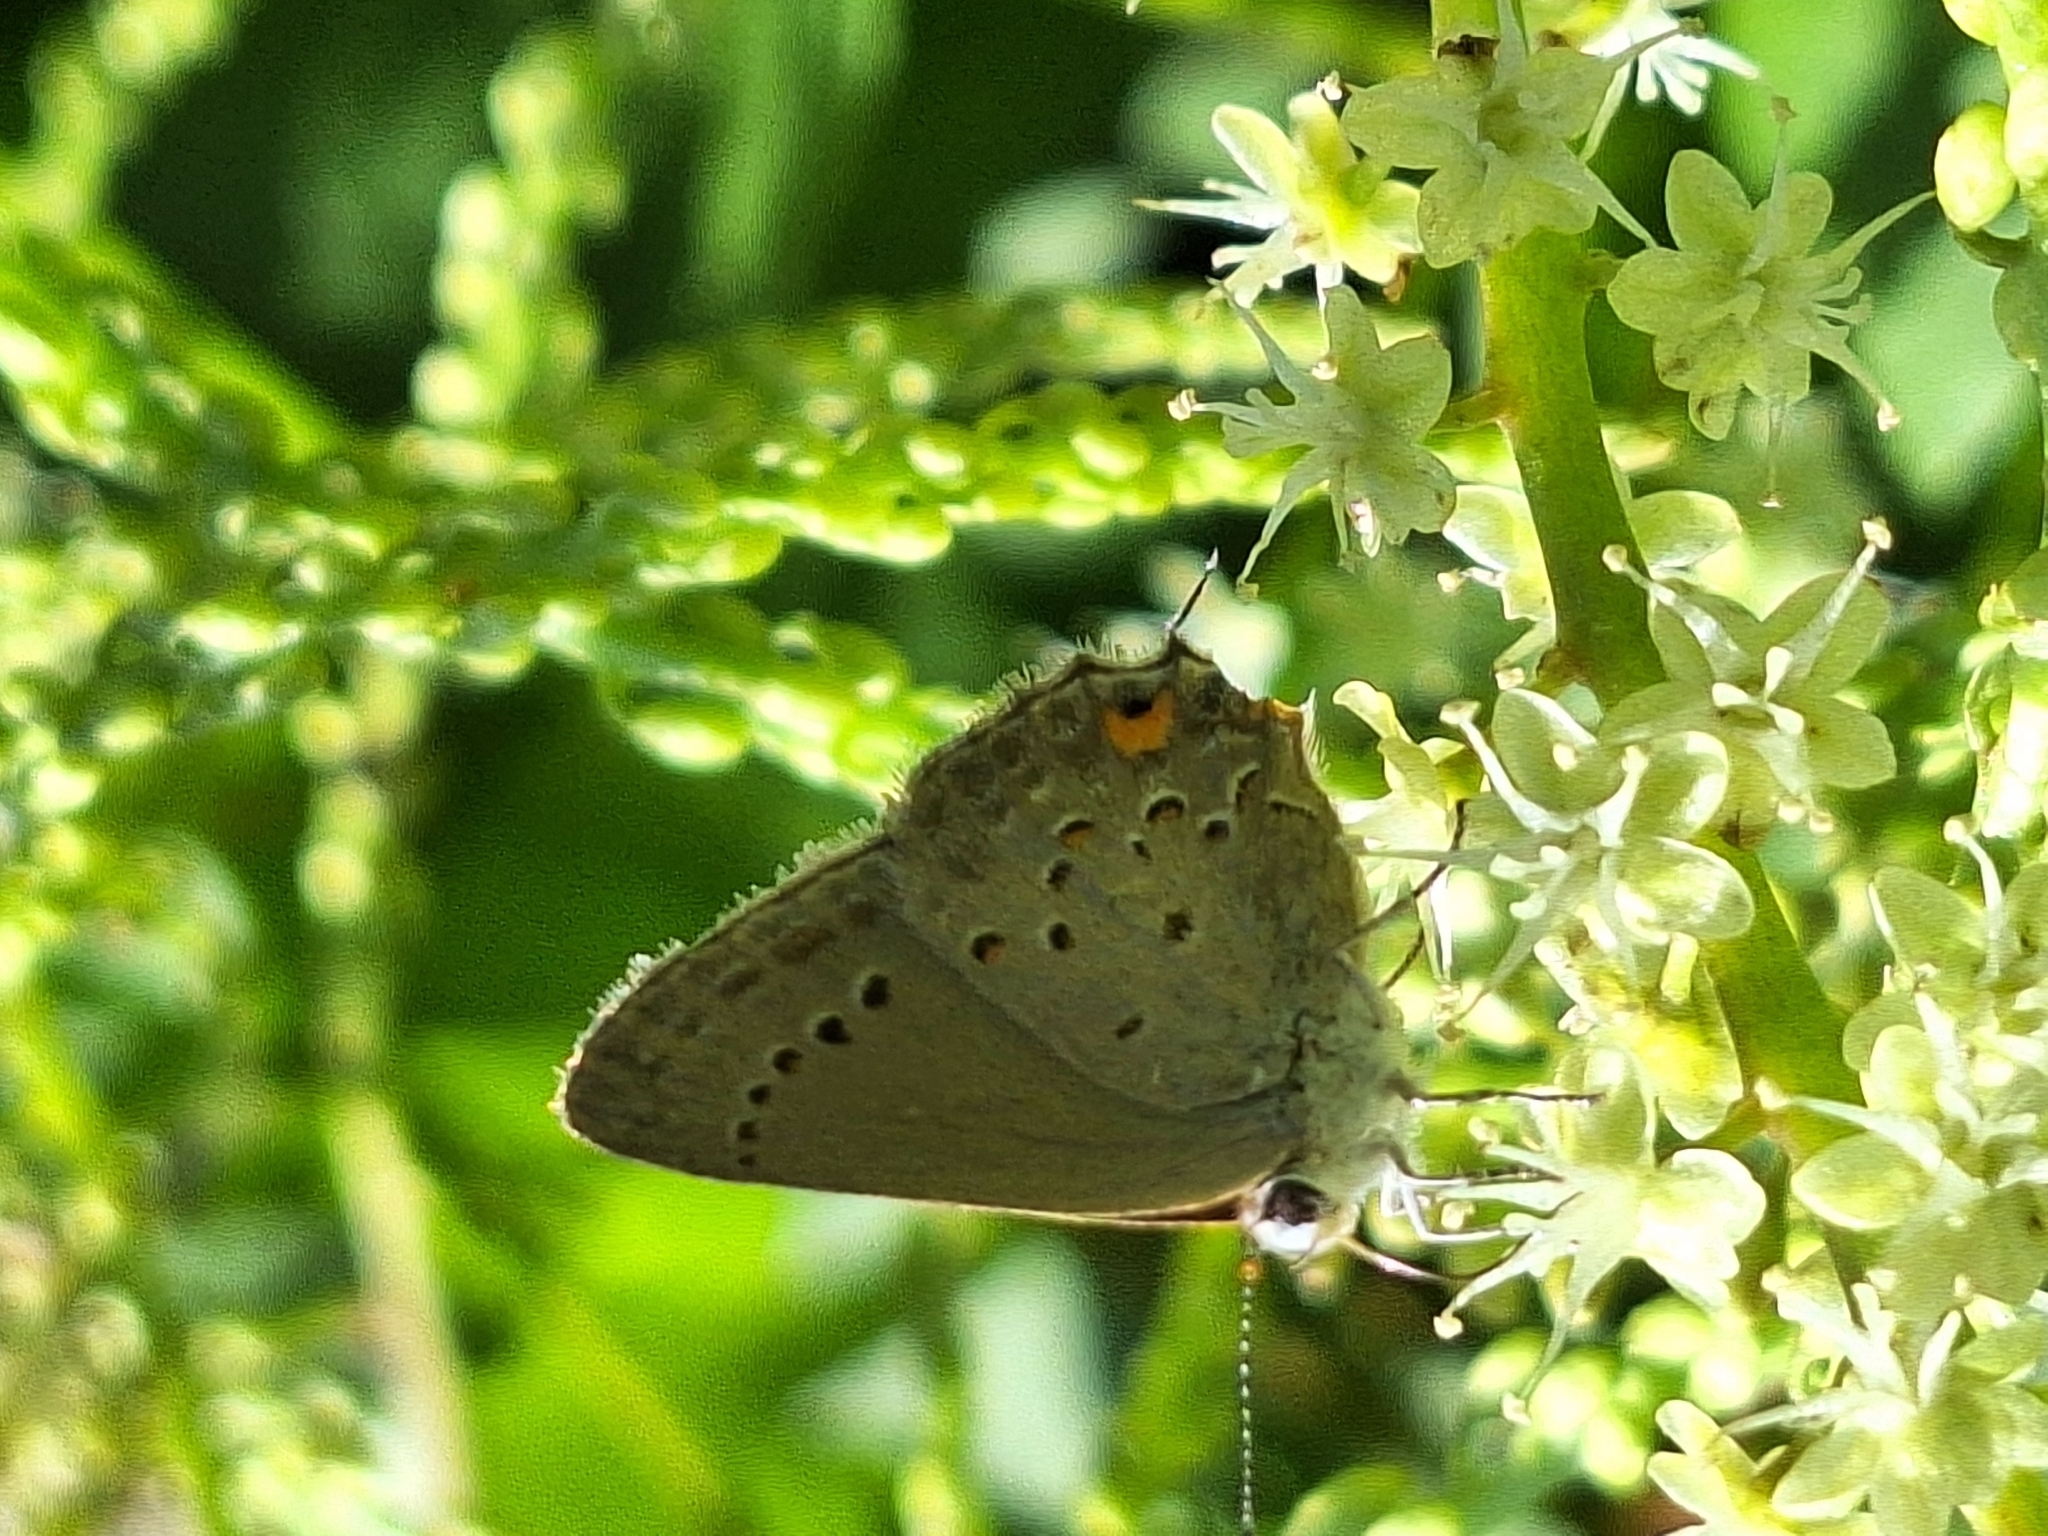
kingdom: Animalia
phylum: Arthropoda
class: Insecta
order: Lepidoptera
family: Lycaenidae
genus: Strymon
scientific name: Strymon eurytulus
